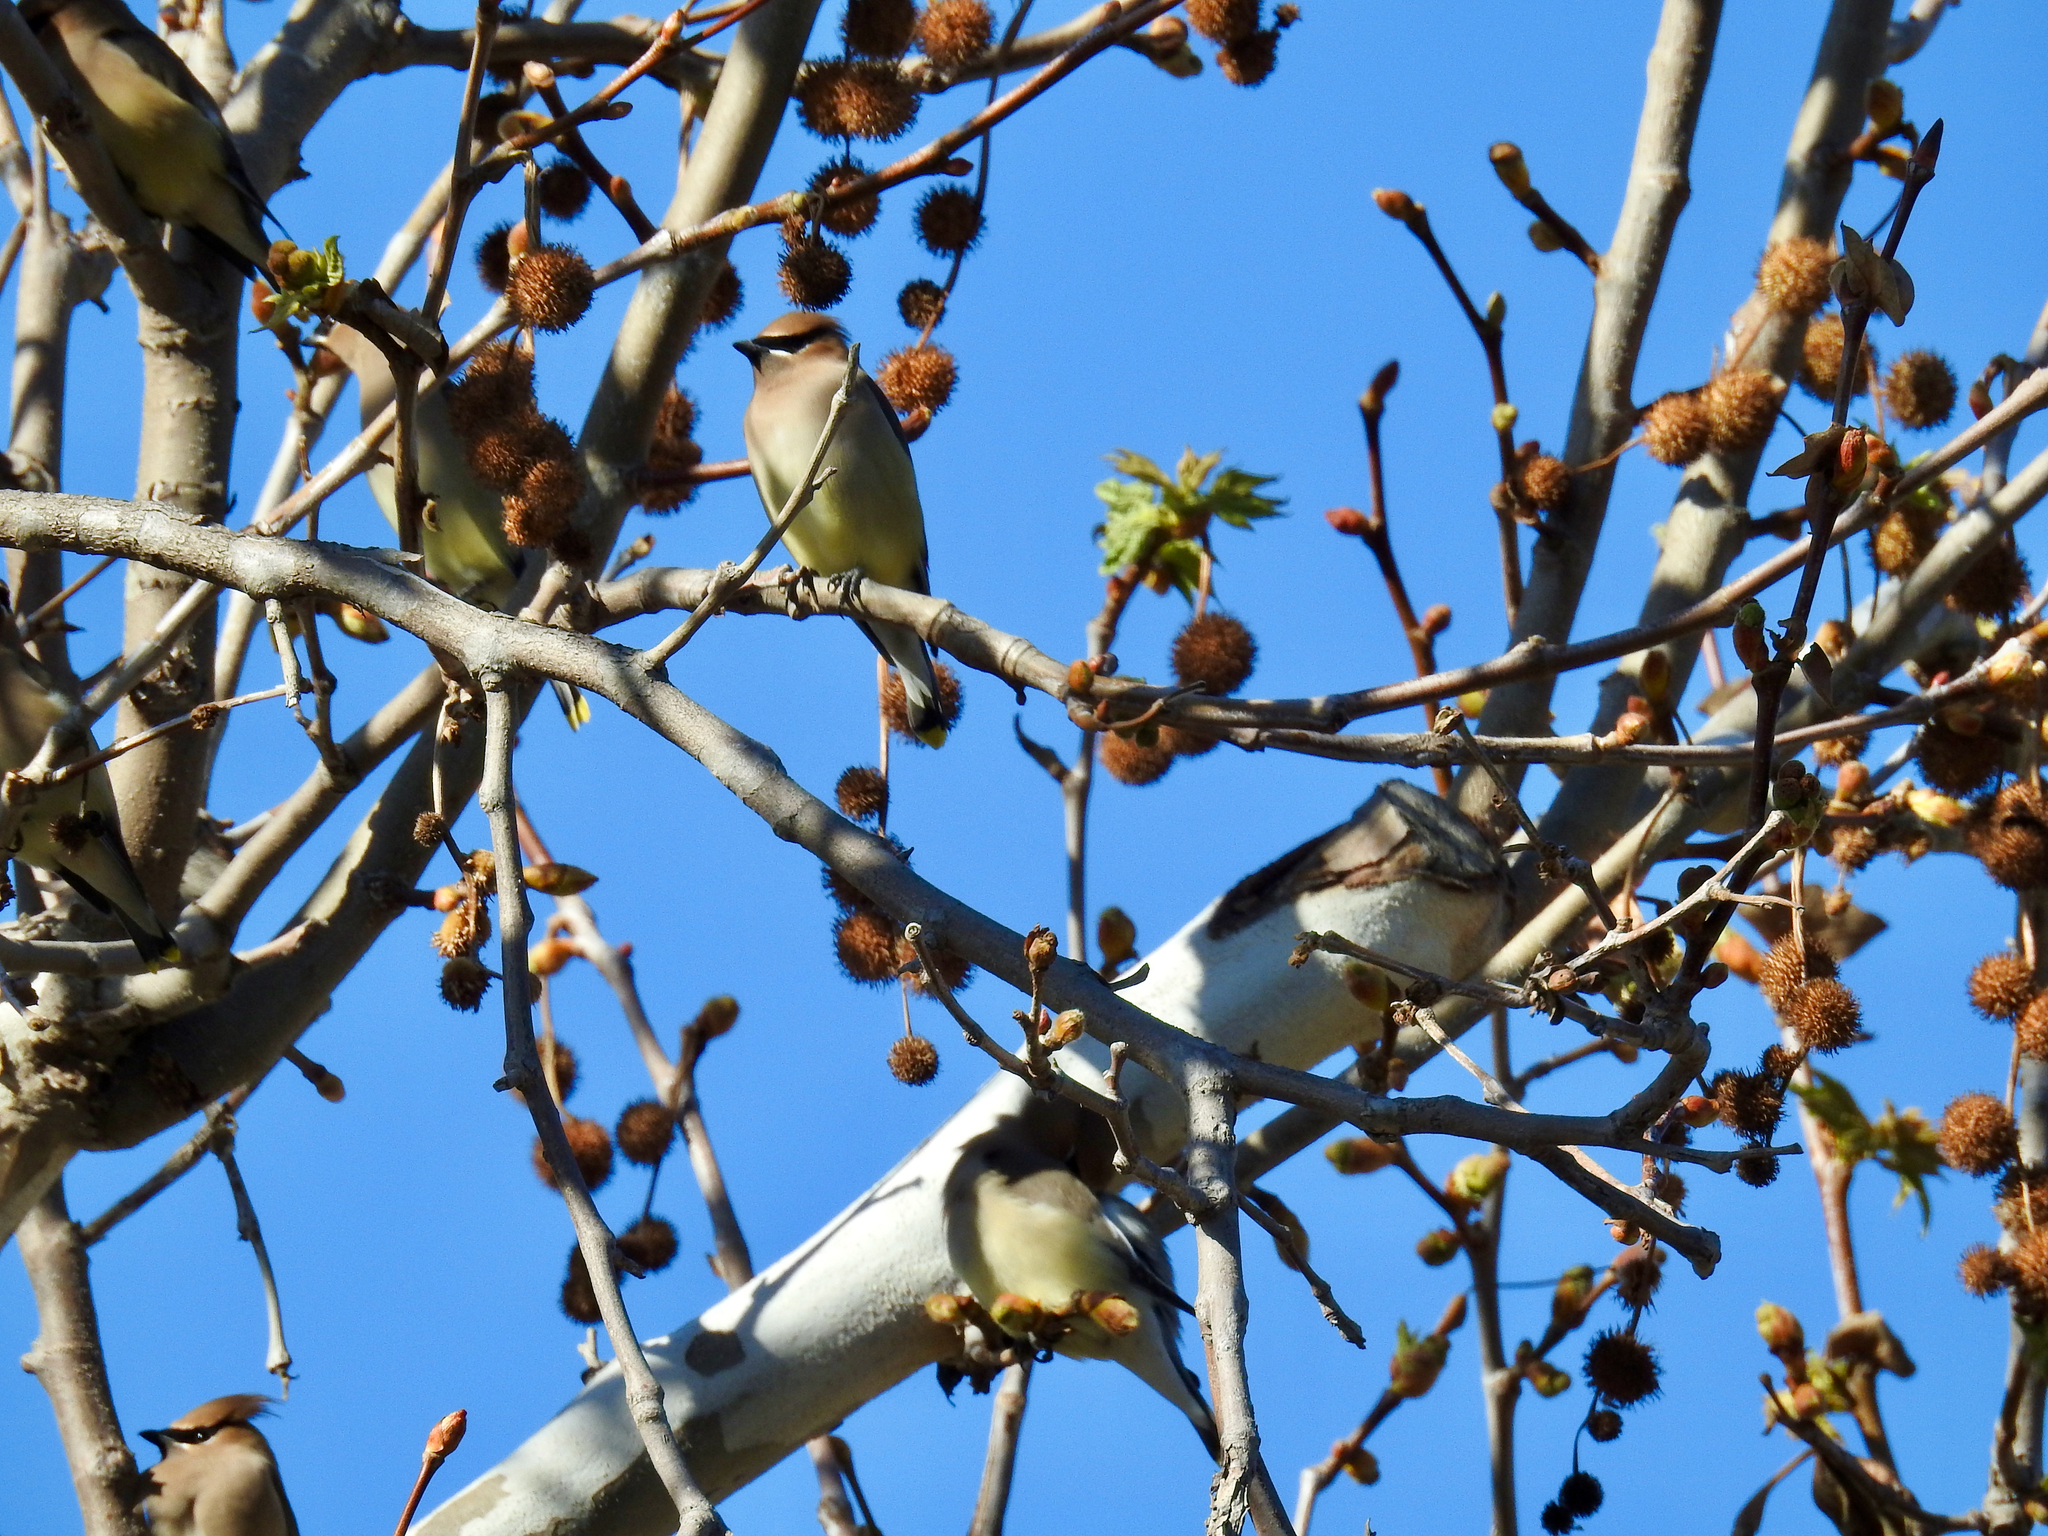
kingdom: Animalia
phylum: Chordata
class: Aves
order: Passeriformes
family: Bombycillidae
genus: Bombycilla
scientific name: Bombycilla cedrorum
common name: Cedar waxwing
